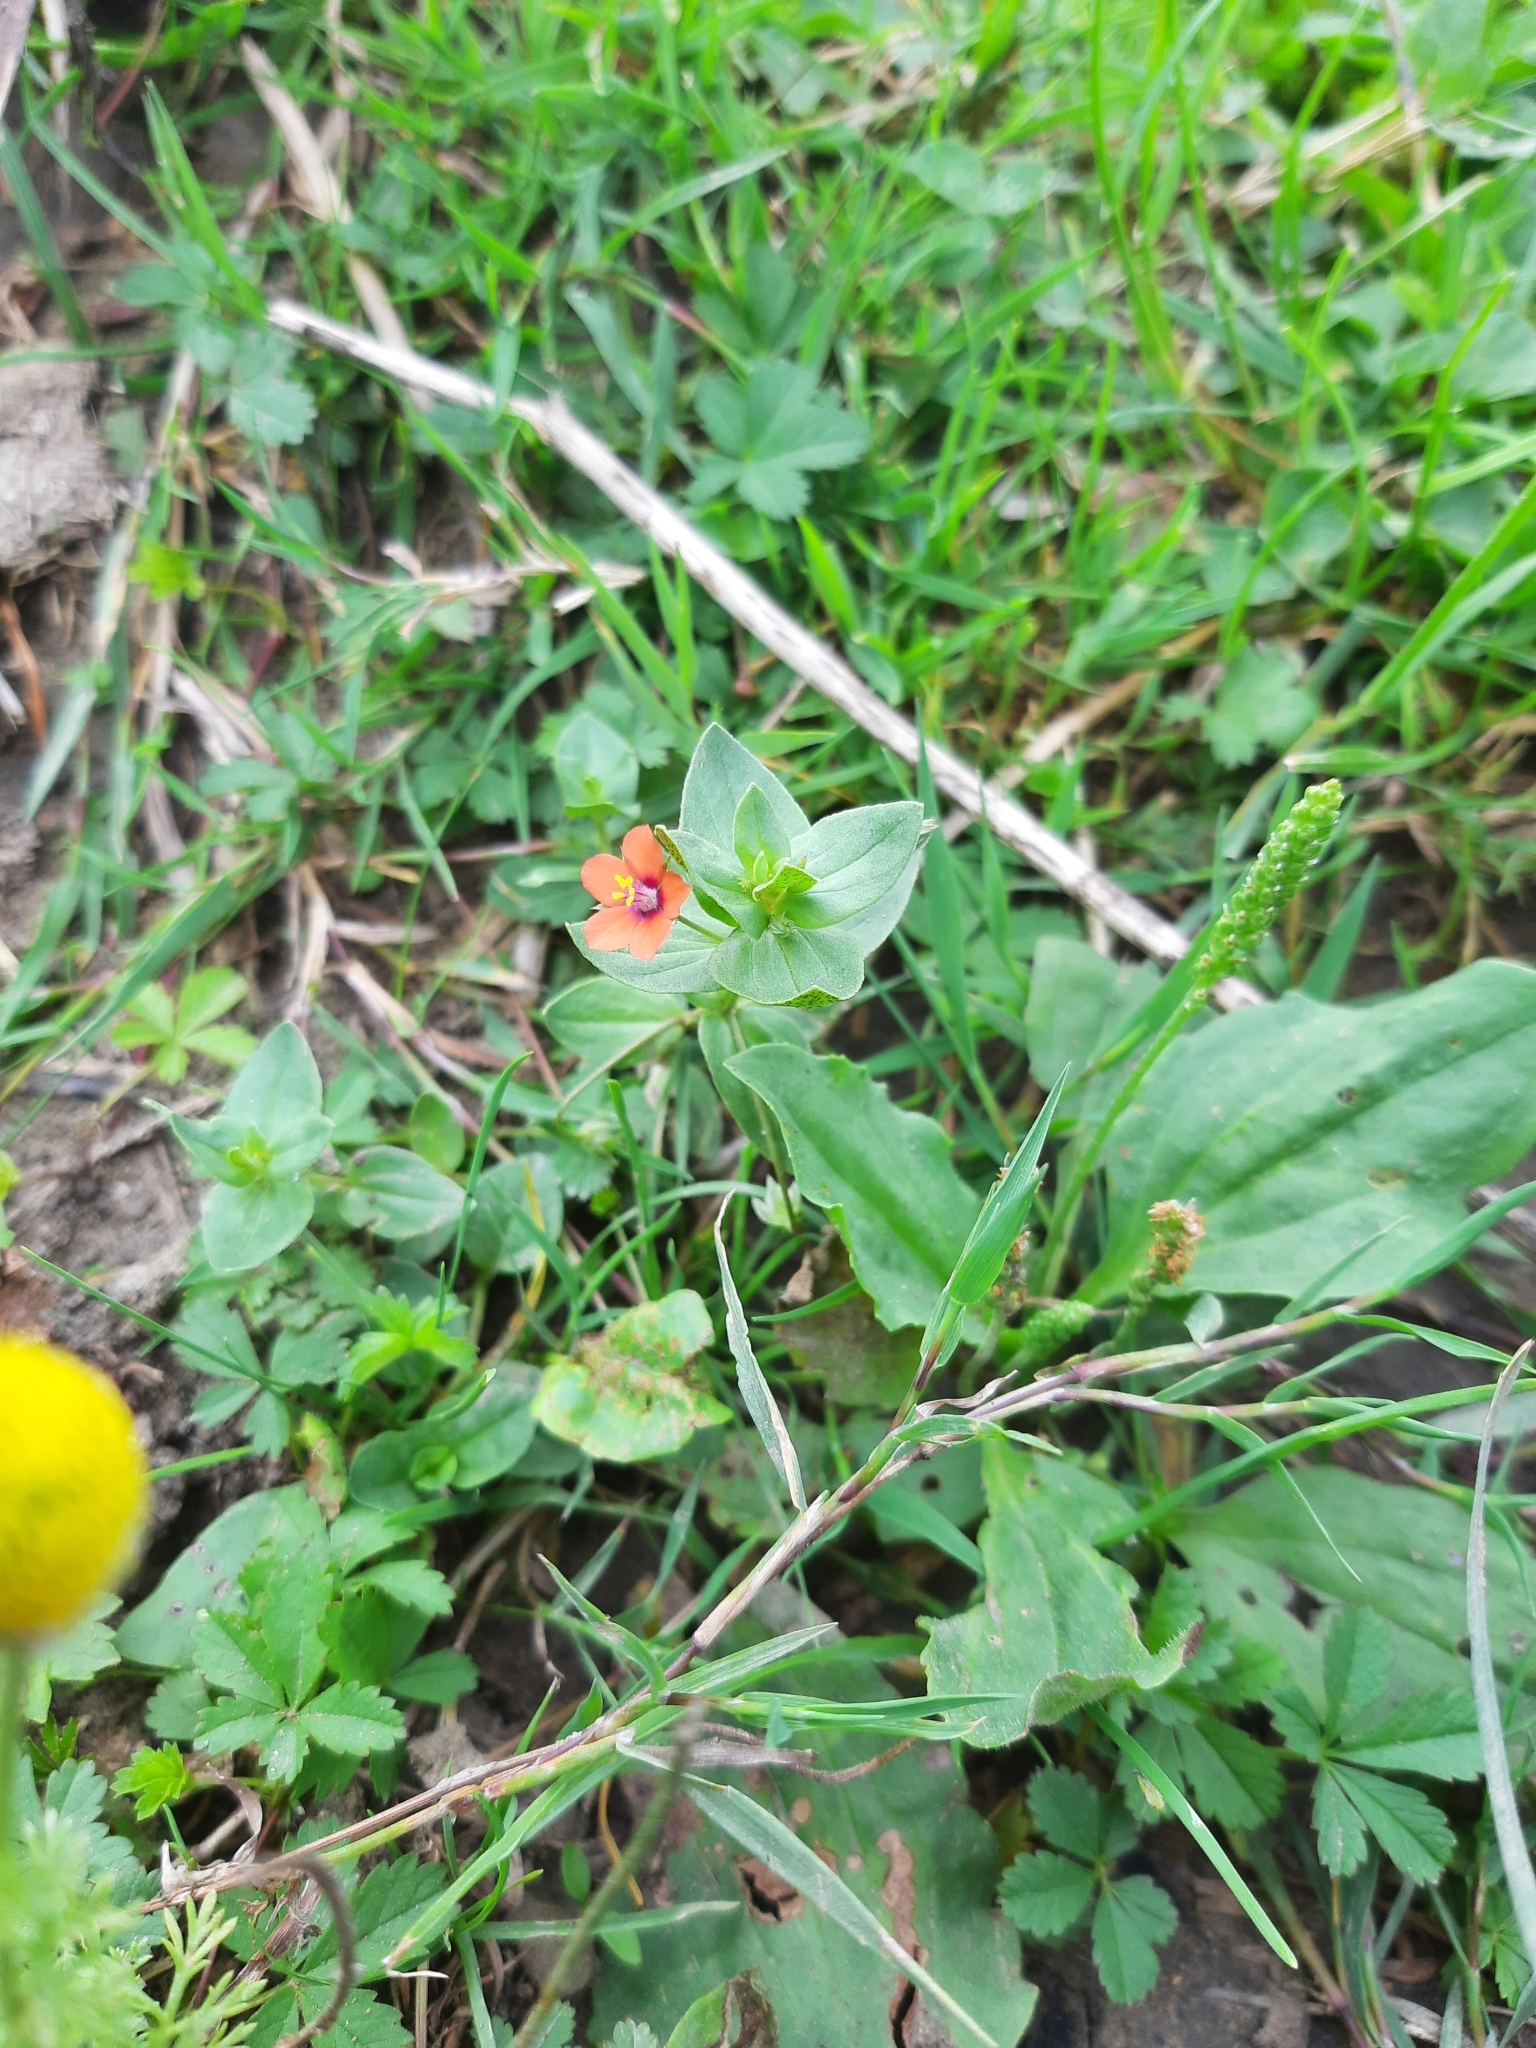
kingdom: Plantae
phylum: Tracheophyta
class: Magnoliopsida
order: Ericales
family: Primulaceae
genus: Lysimachia
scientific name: Lysimachia arvensis
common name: Scarlet pimpernel
